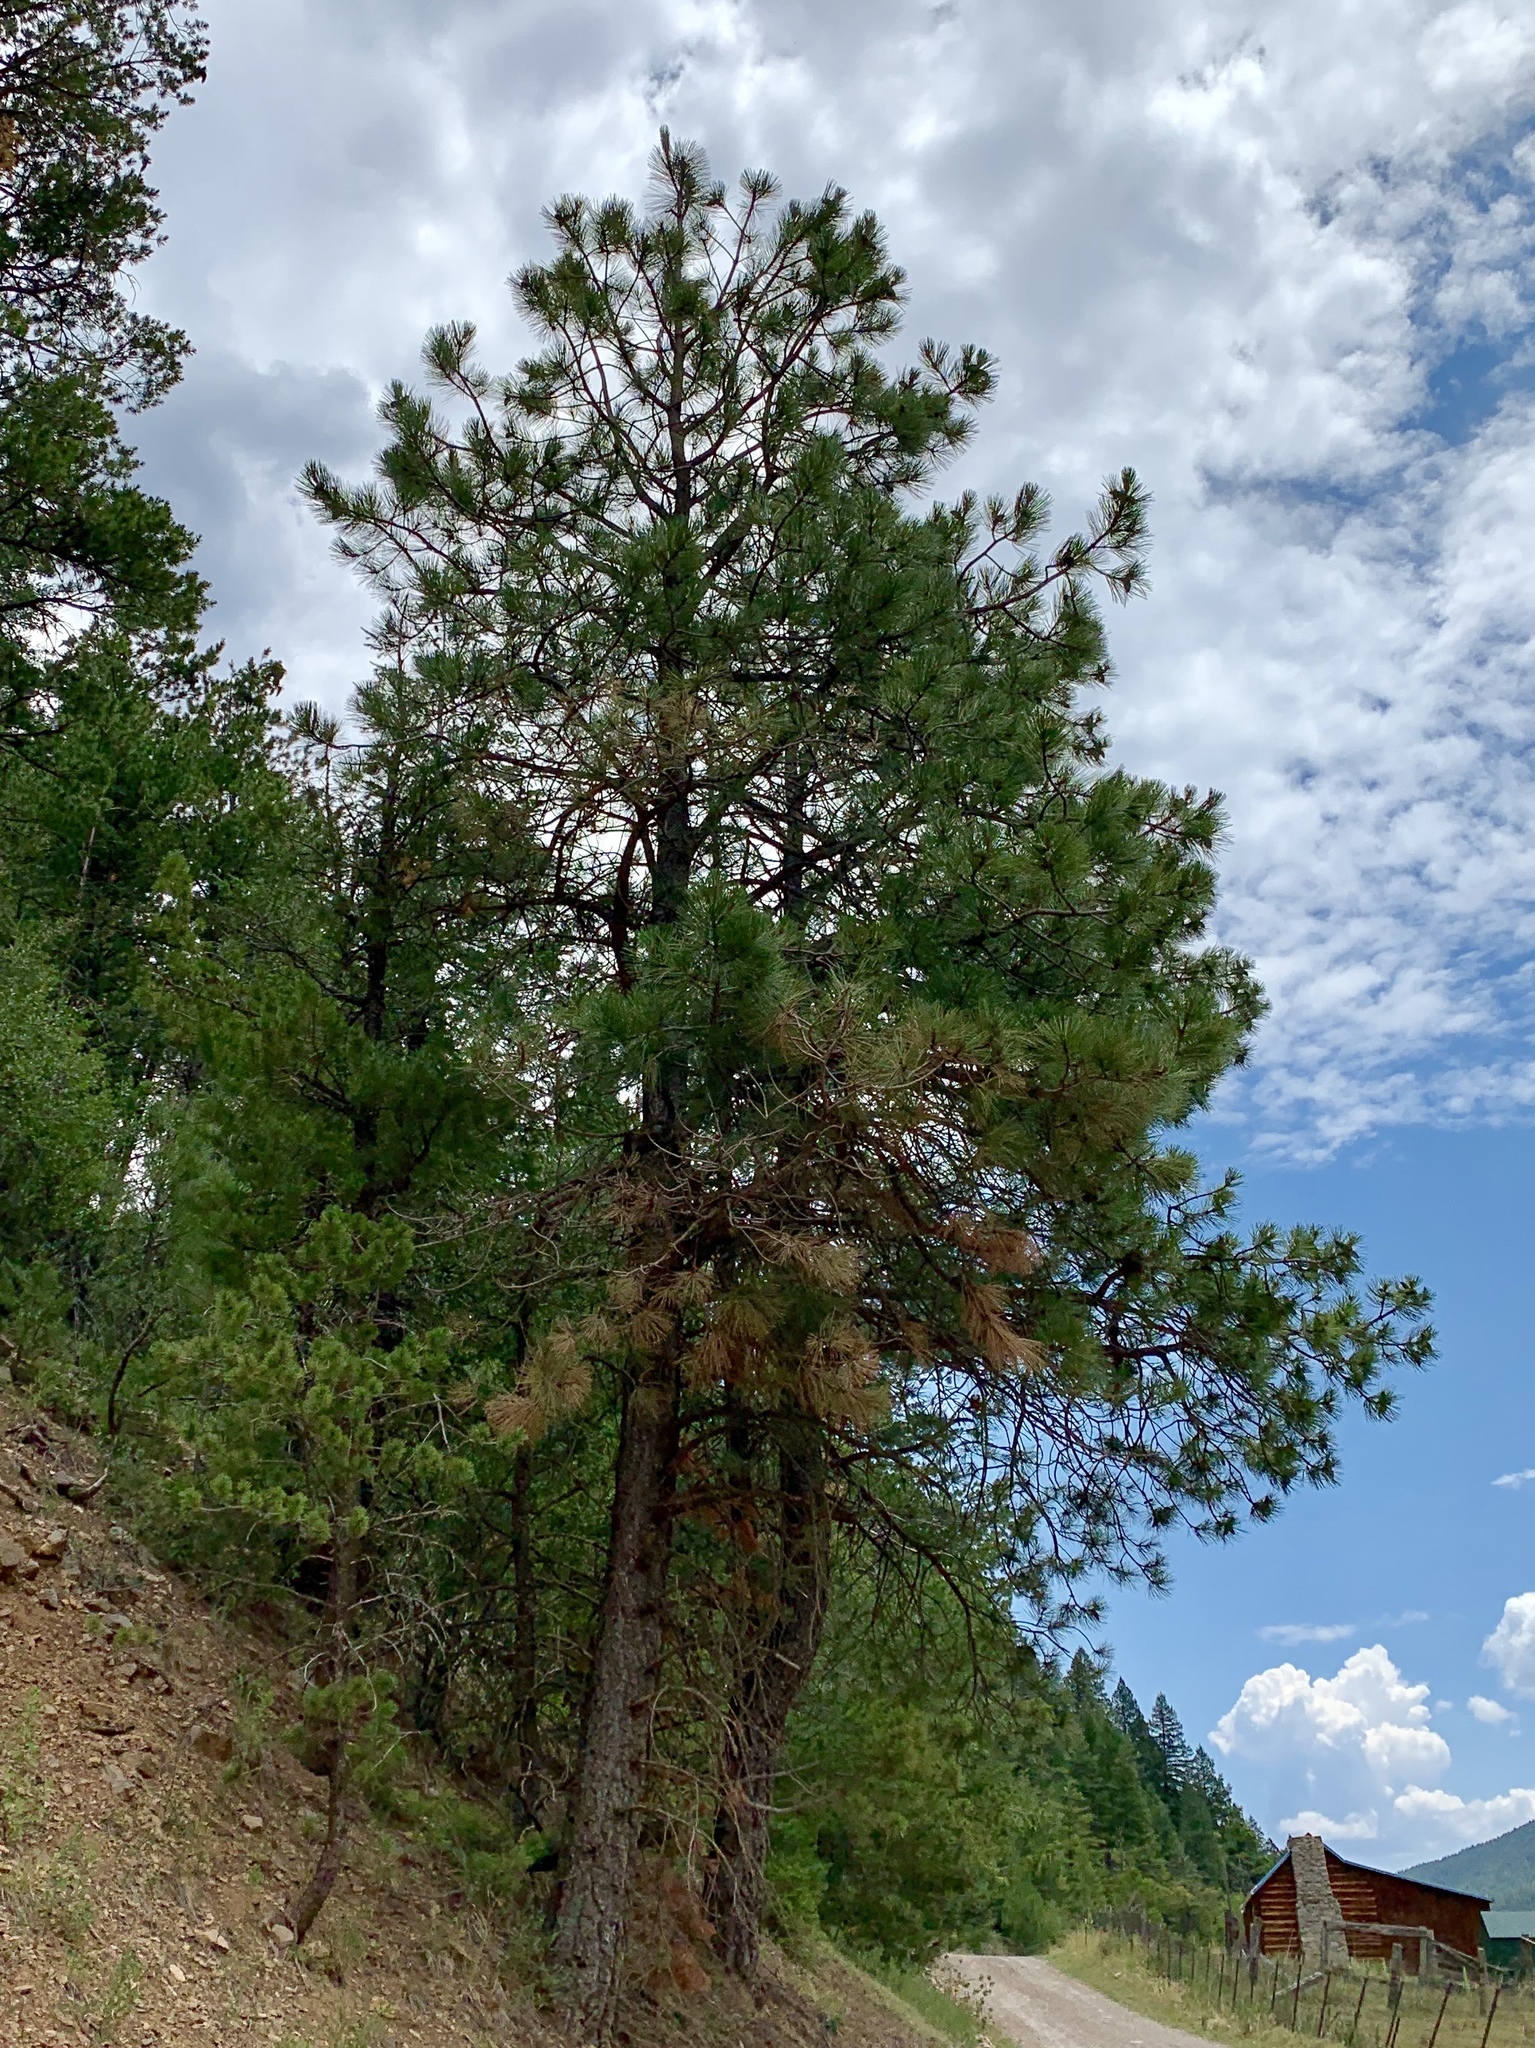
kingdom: Plantae
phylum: Tracheophyta
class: Pinopsida
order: Pinales
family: Pinaceae
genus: Pinus
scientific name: Pinus ponderosa
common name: Western yellow-pine
